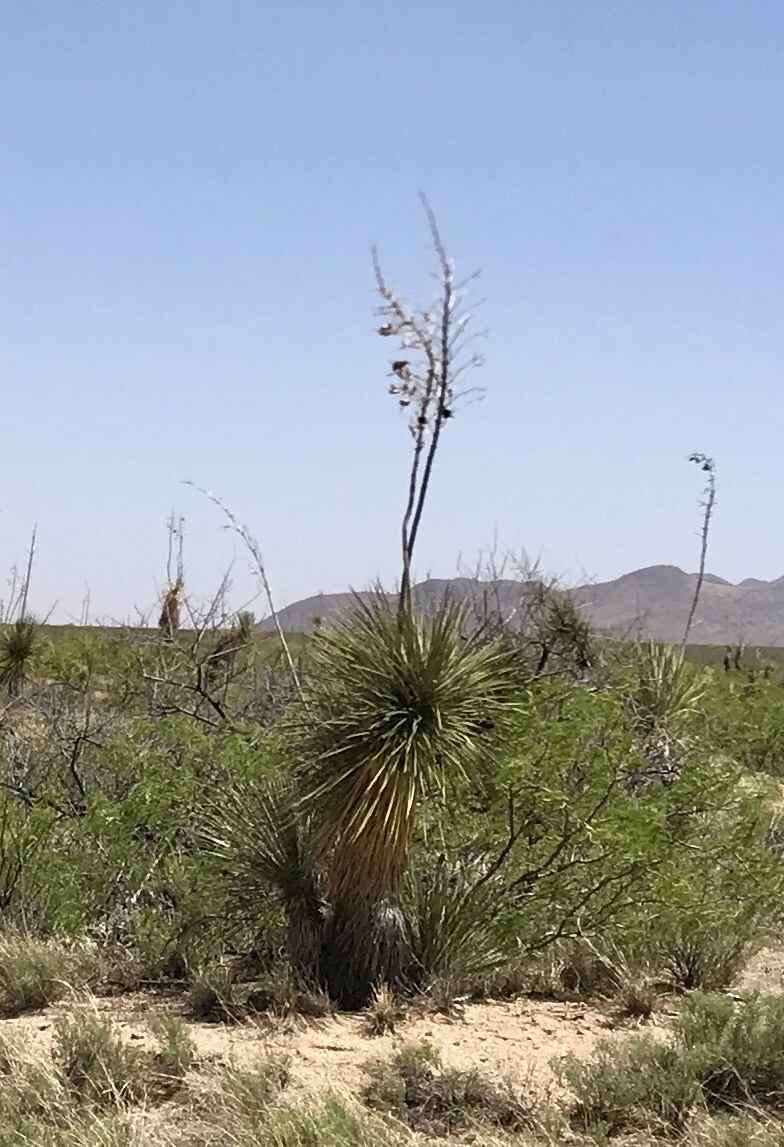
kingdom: Plantae
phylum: Tracheophyta
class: Liliopsida
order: Asparagales
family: Asparagaceae
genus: Yucca
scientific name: Yucca elata
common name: Palmella
